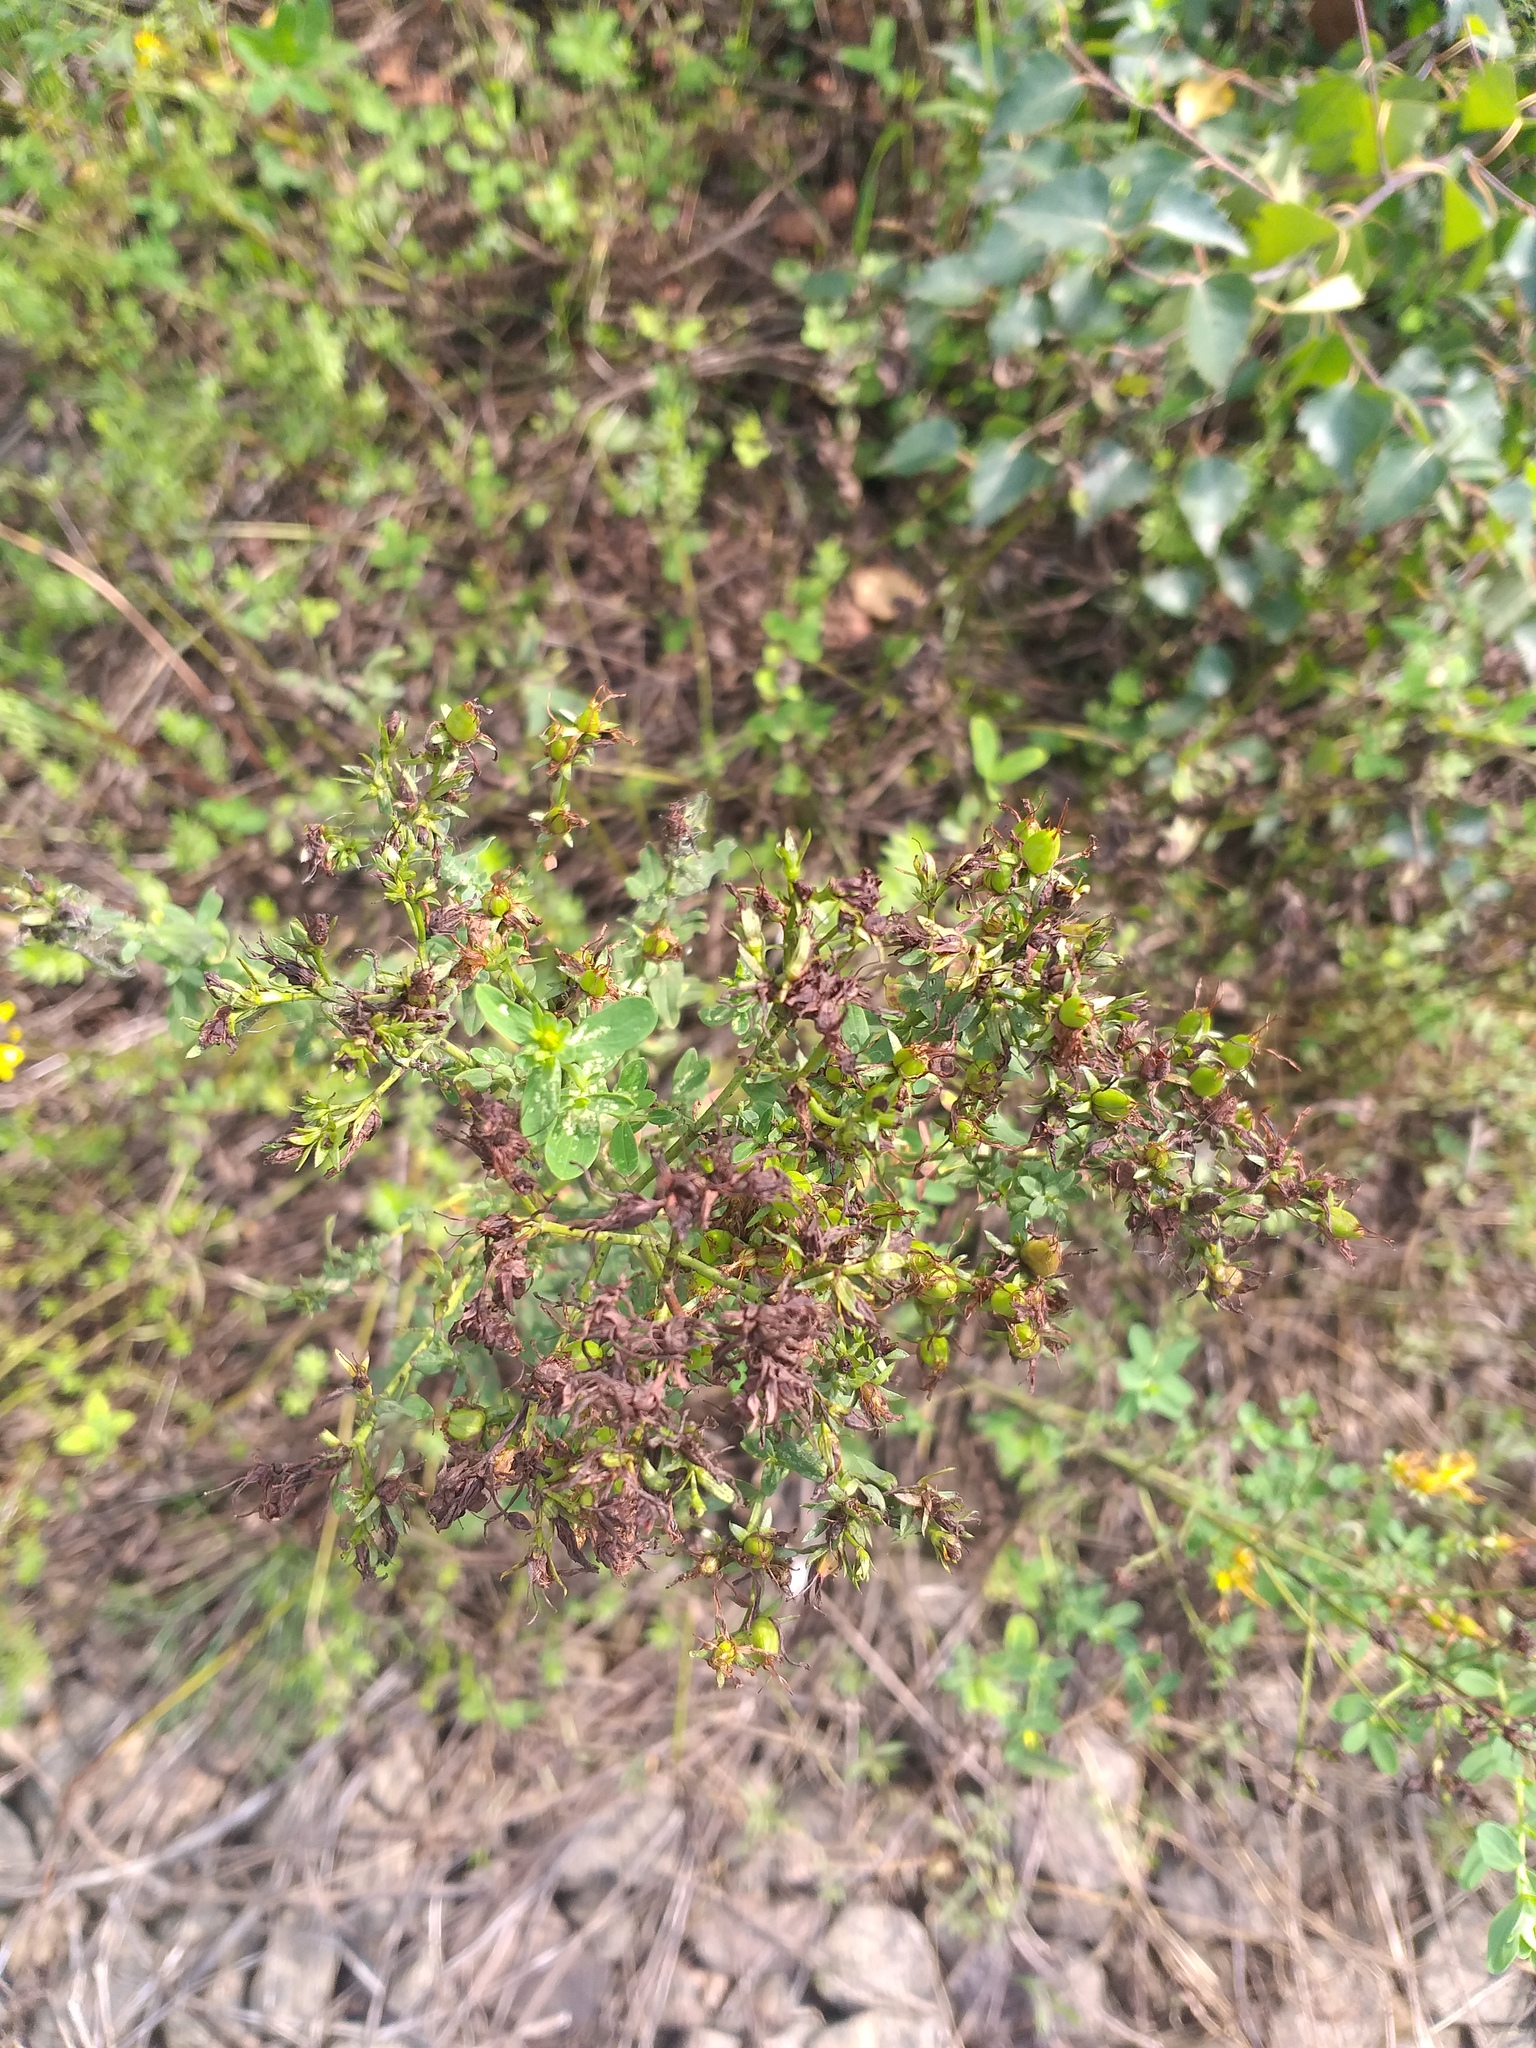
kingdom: Plantae
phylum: Tracheophyta
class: Magnoliopsida
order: Malpighiales
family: Hypericaceae
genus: Hypericum
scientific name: Hypericum perforatum
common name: Common st. johnswort
